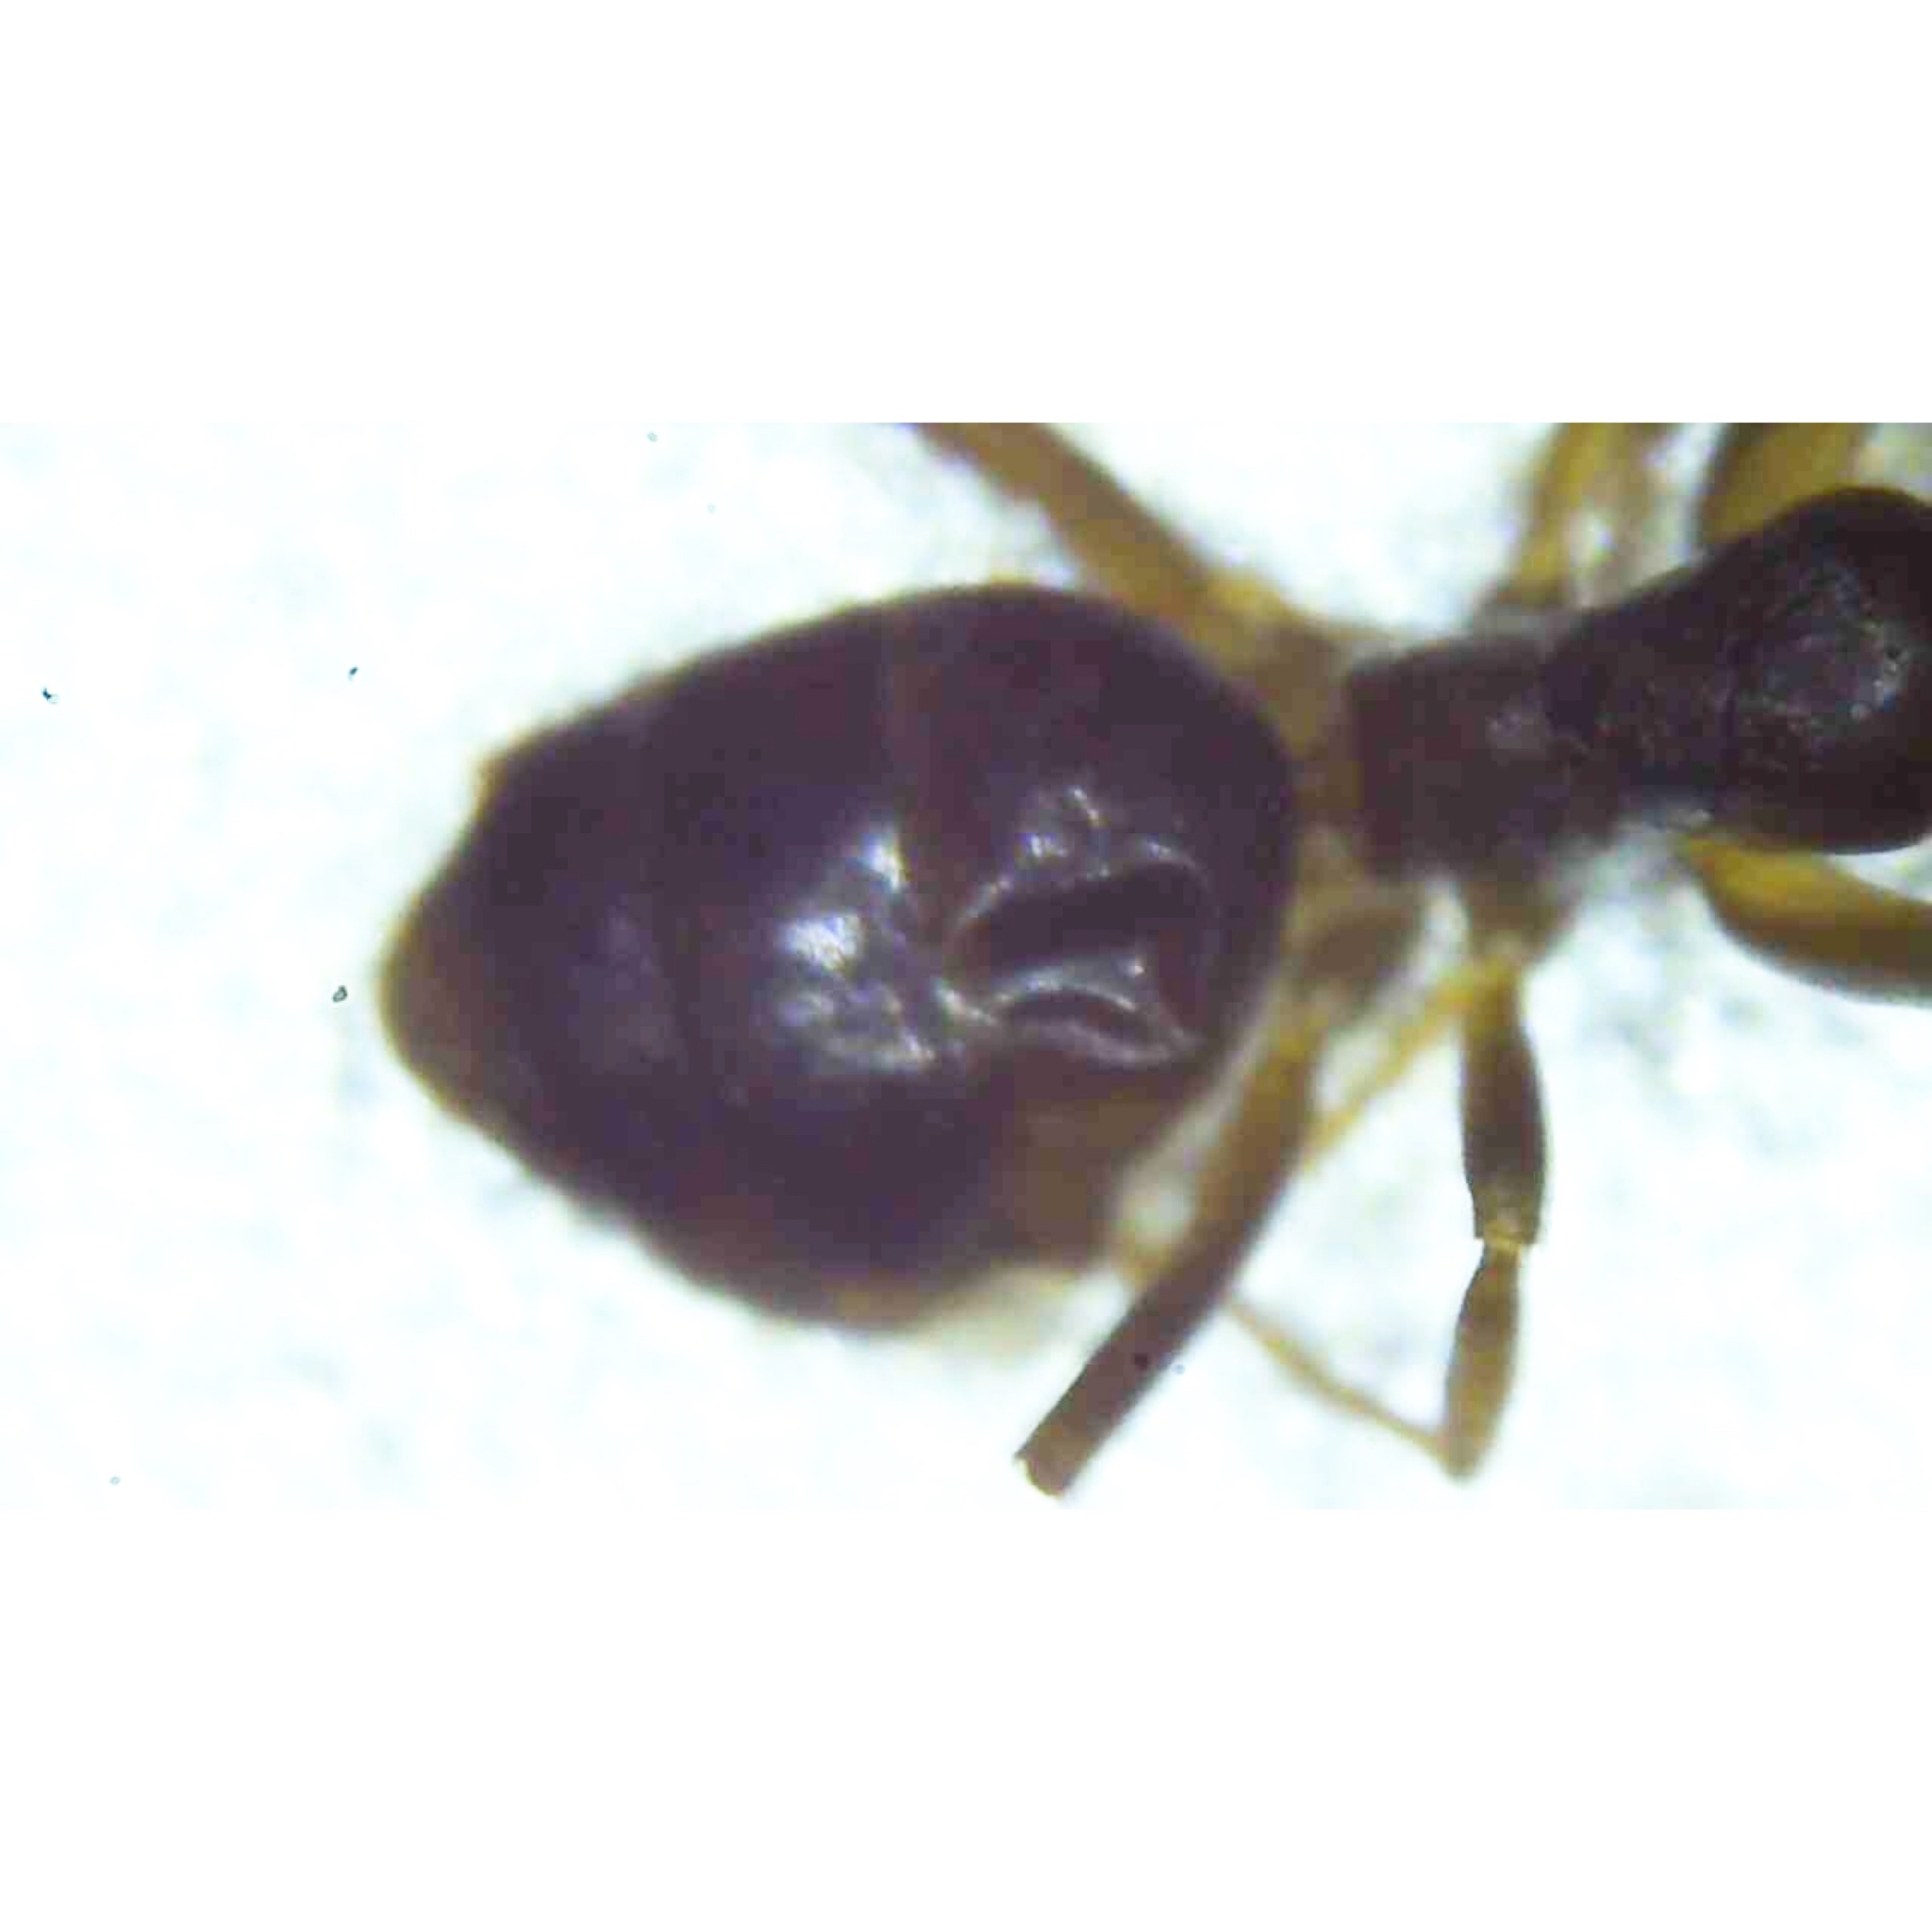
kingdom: Animalia
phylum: Arthropoda
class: Insecta
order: Hymenoptera
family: Formicidae
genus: Tapinoma
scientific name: Tapinoma sessile
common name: Odorous house ant
